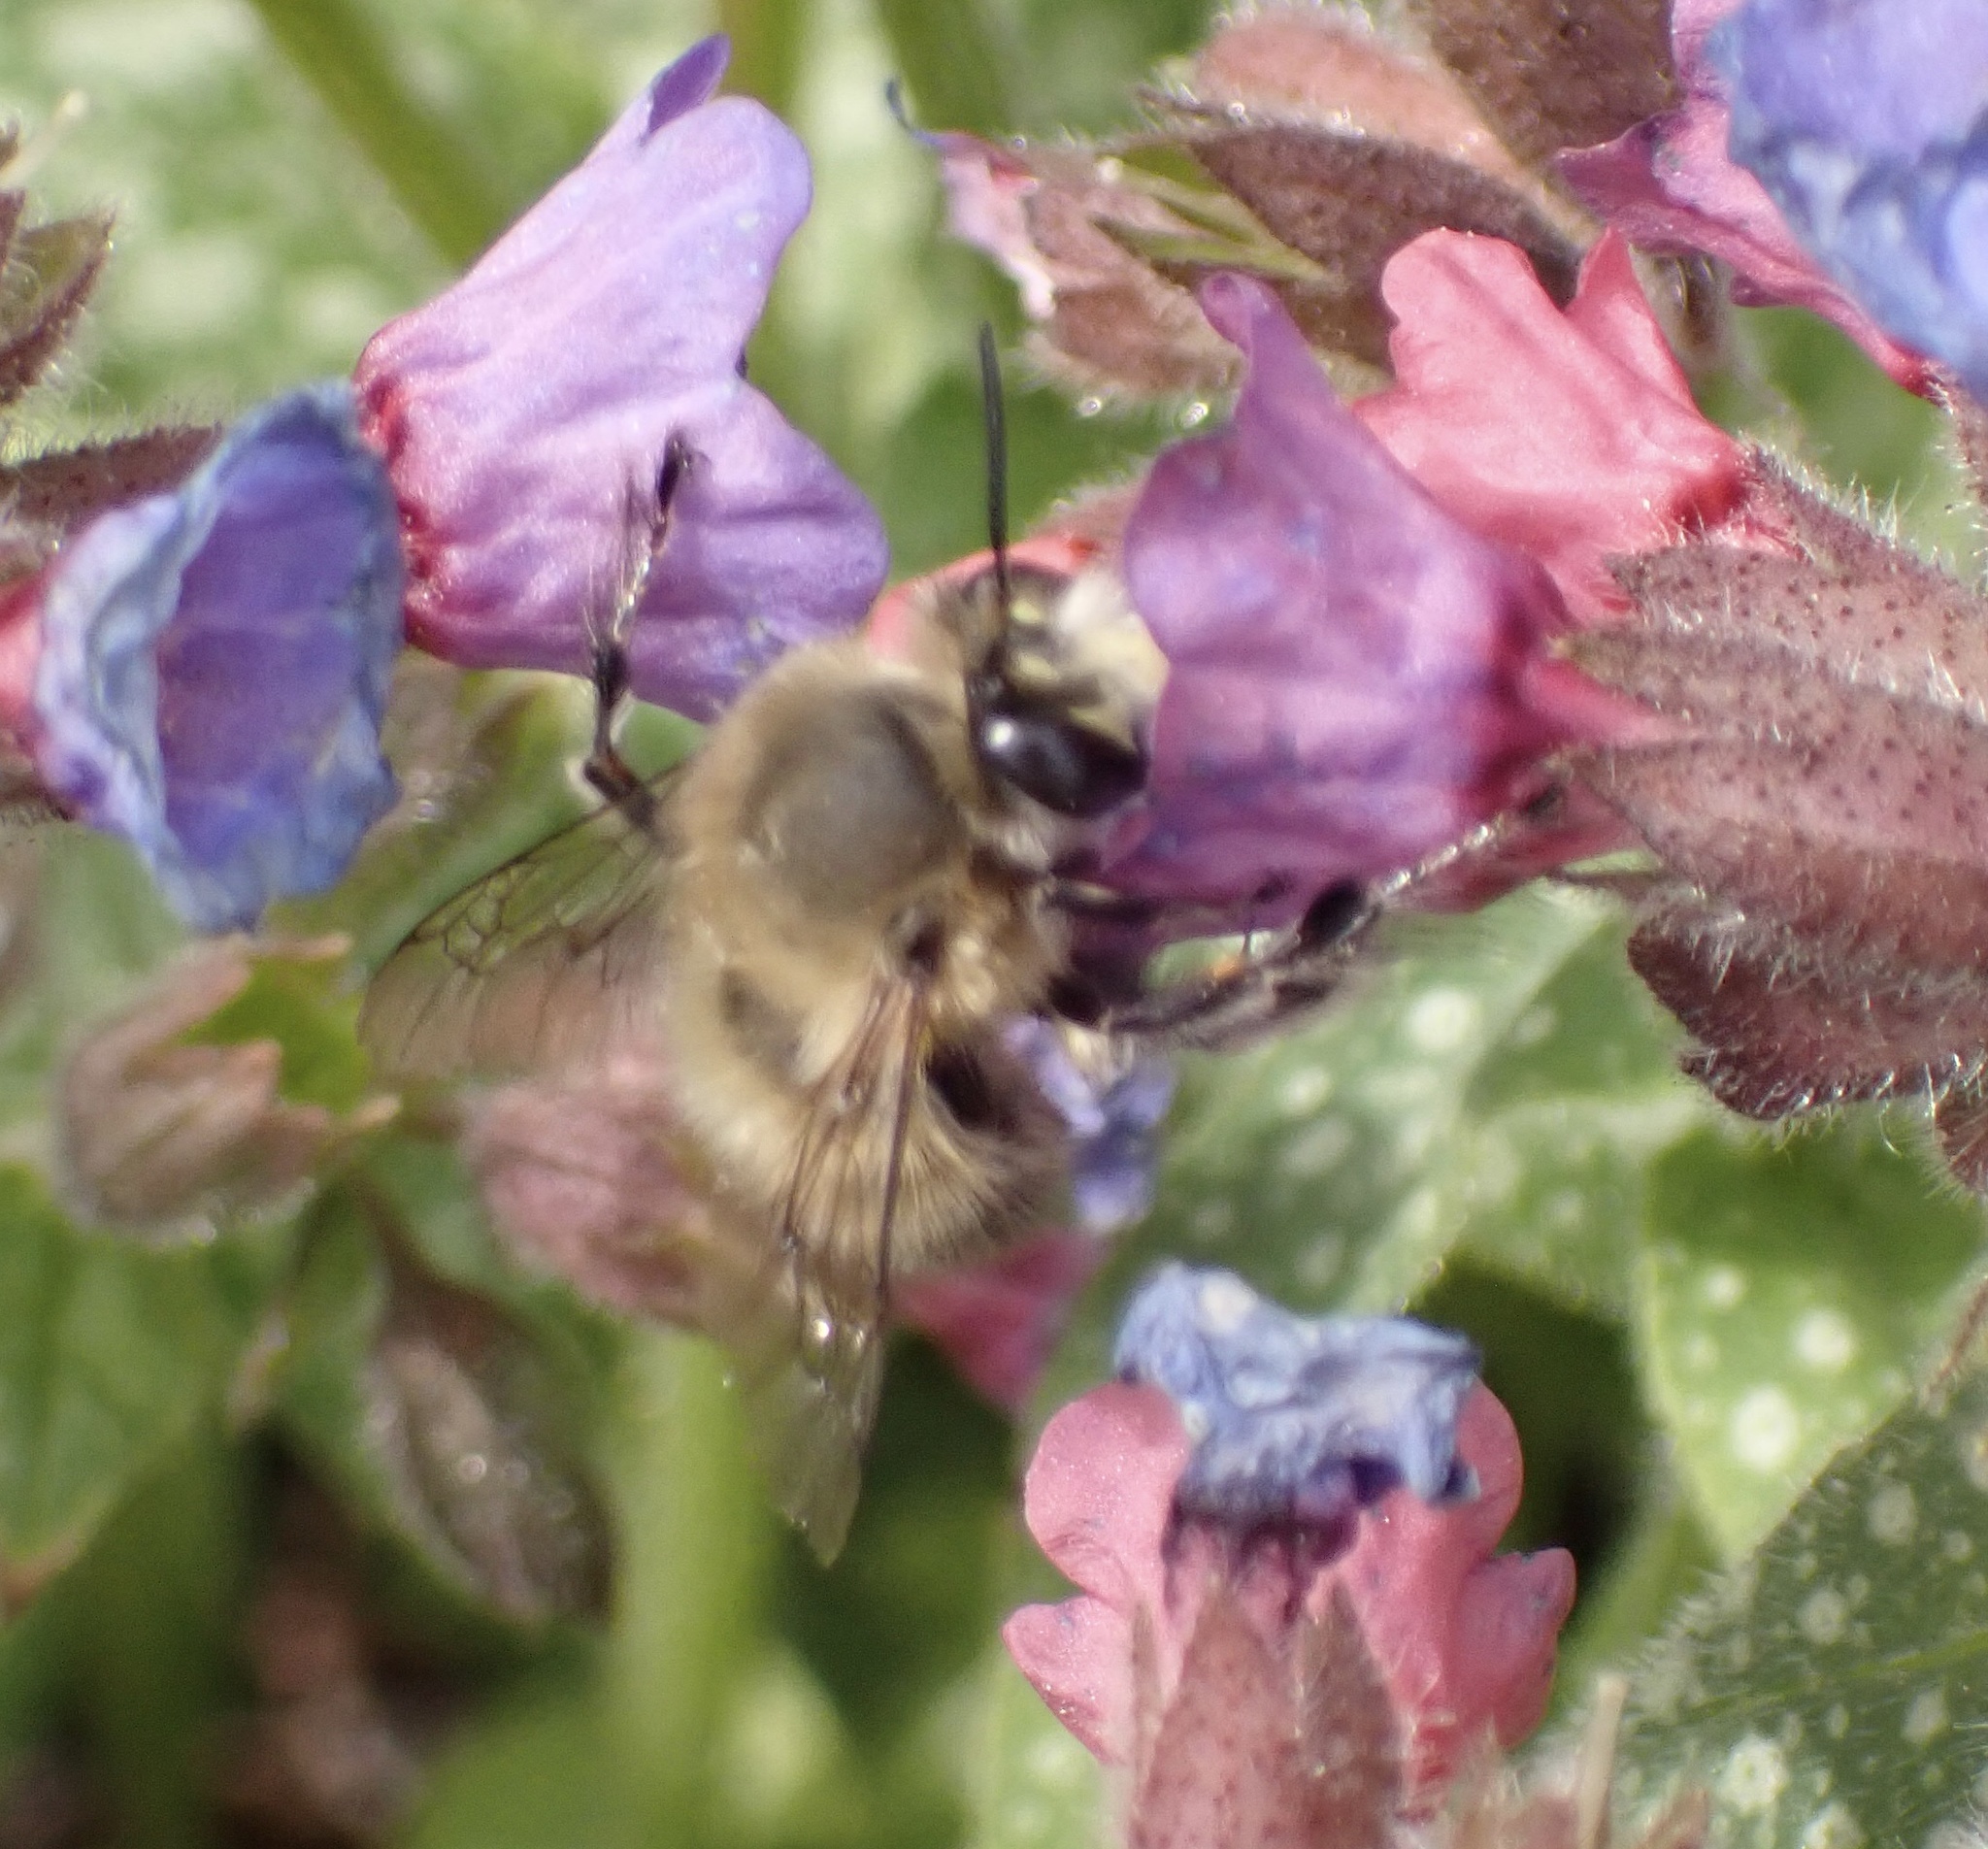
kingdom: Animalia
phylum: Arthropoda
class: Insecta
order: Hymenoptera
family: Apidae
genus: Anthophora
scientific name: Anthophora plumipes
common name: Hairy-footed flower bee
